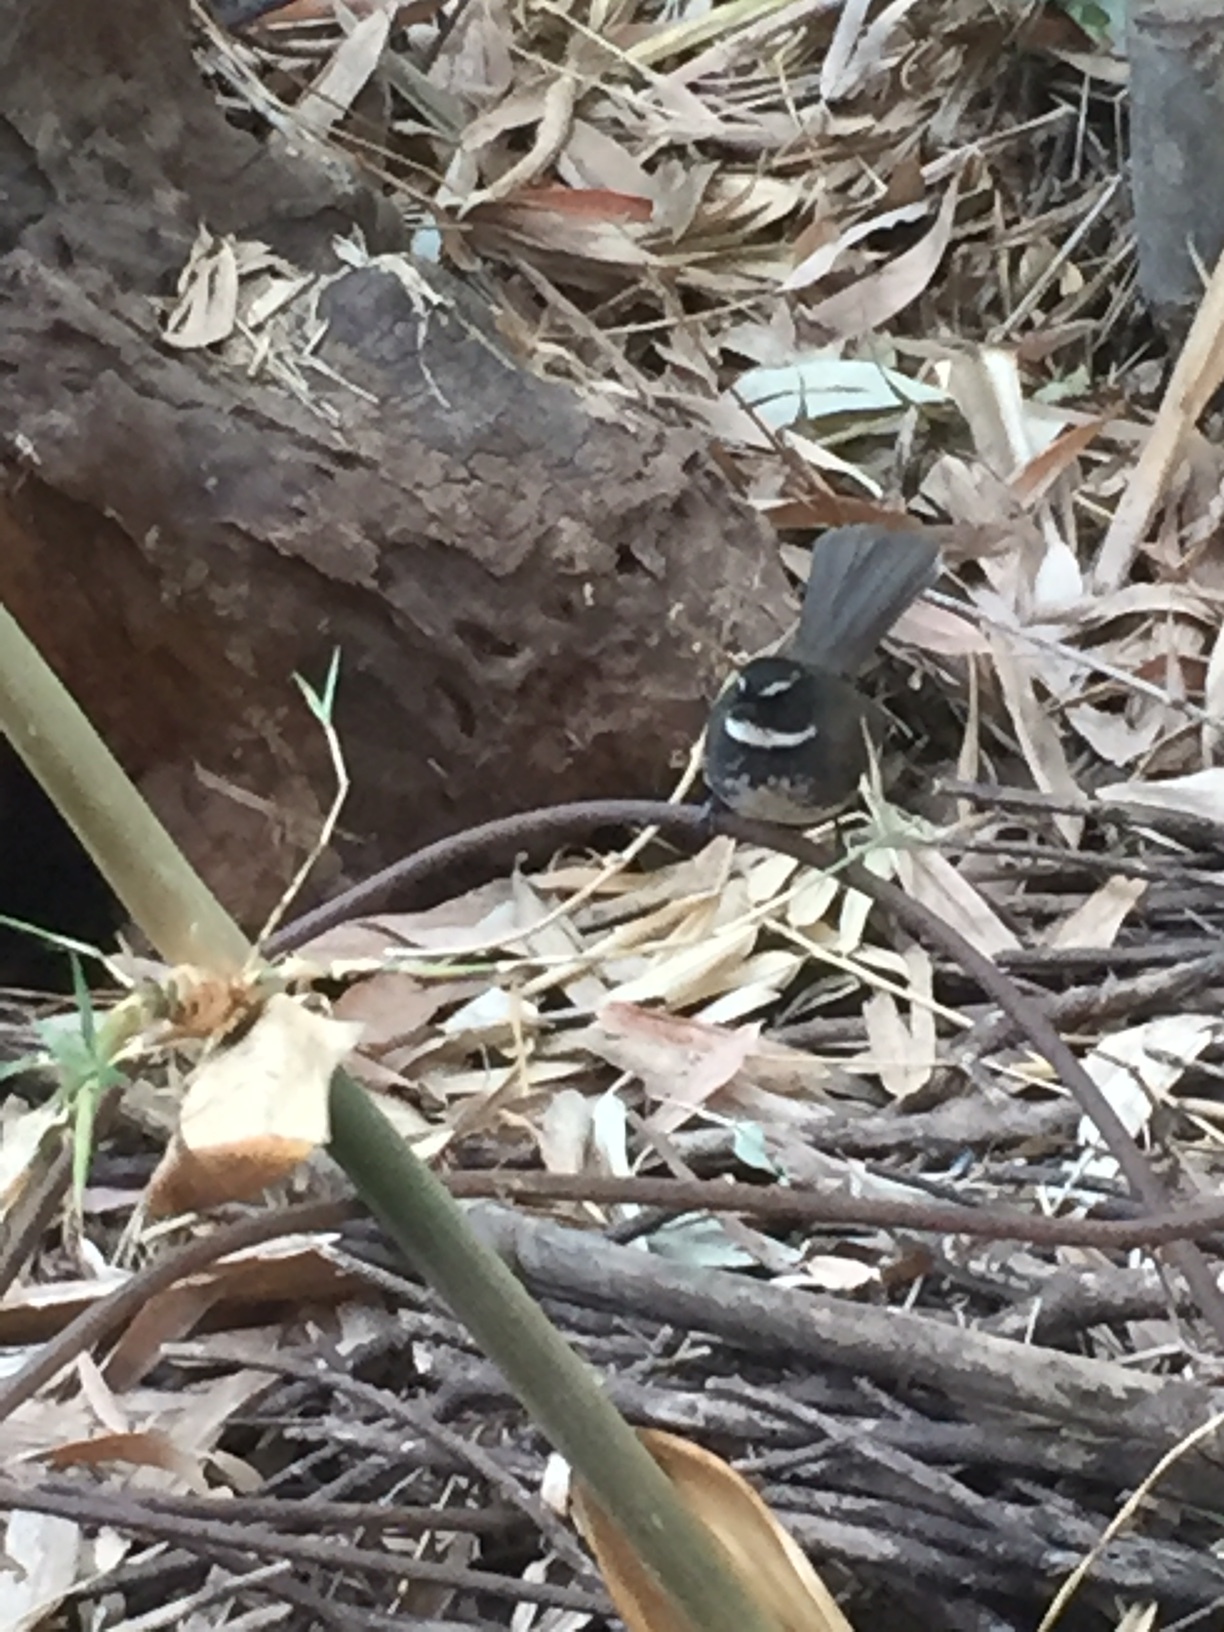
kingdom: Animalia
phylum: Chordata
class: Aves
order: Passeriformes
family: Rhipiduridae
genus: Rhipidura
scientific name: Rhipidura albogularis
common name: White-spotted fantail
